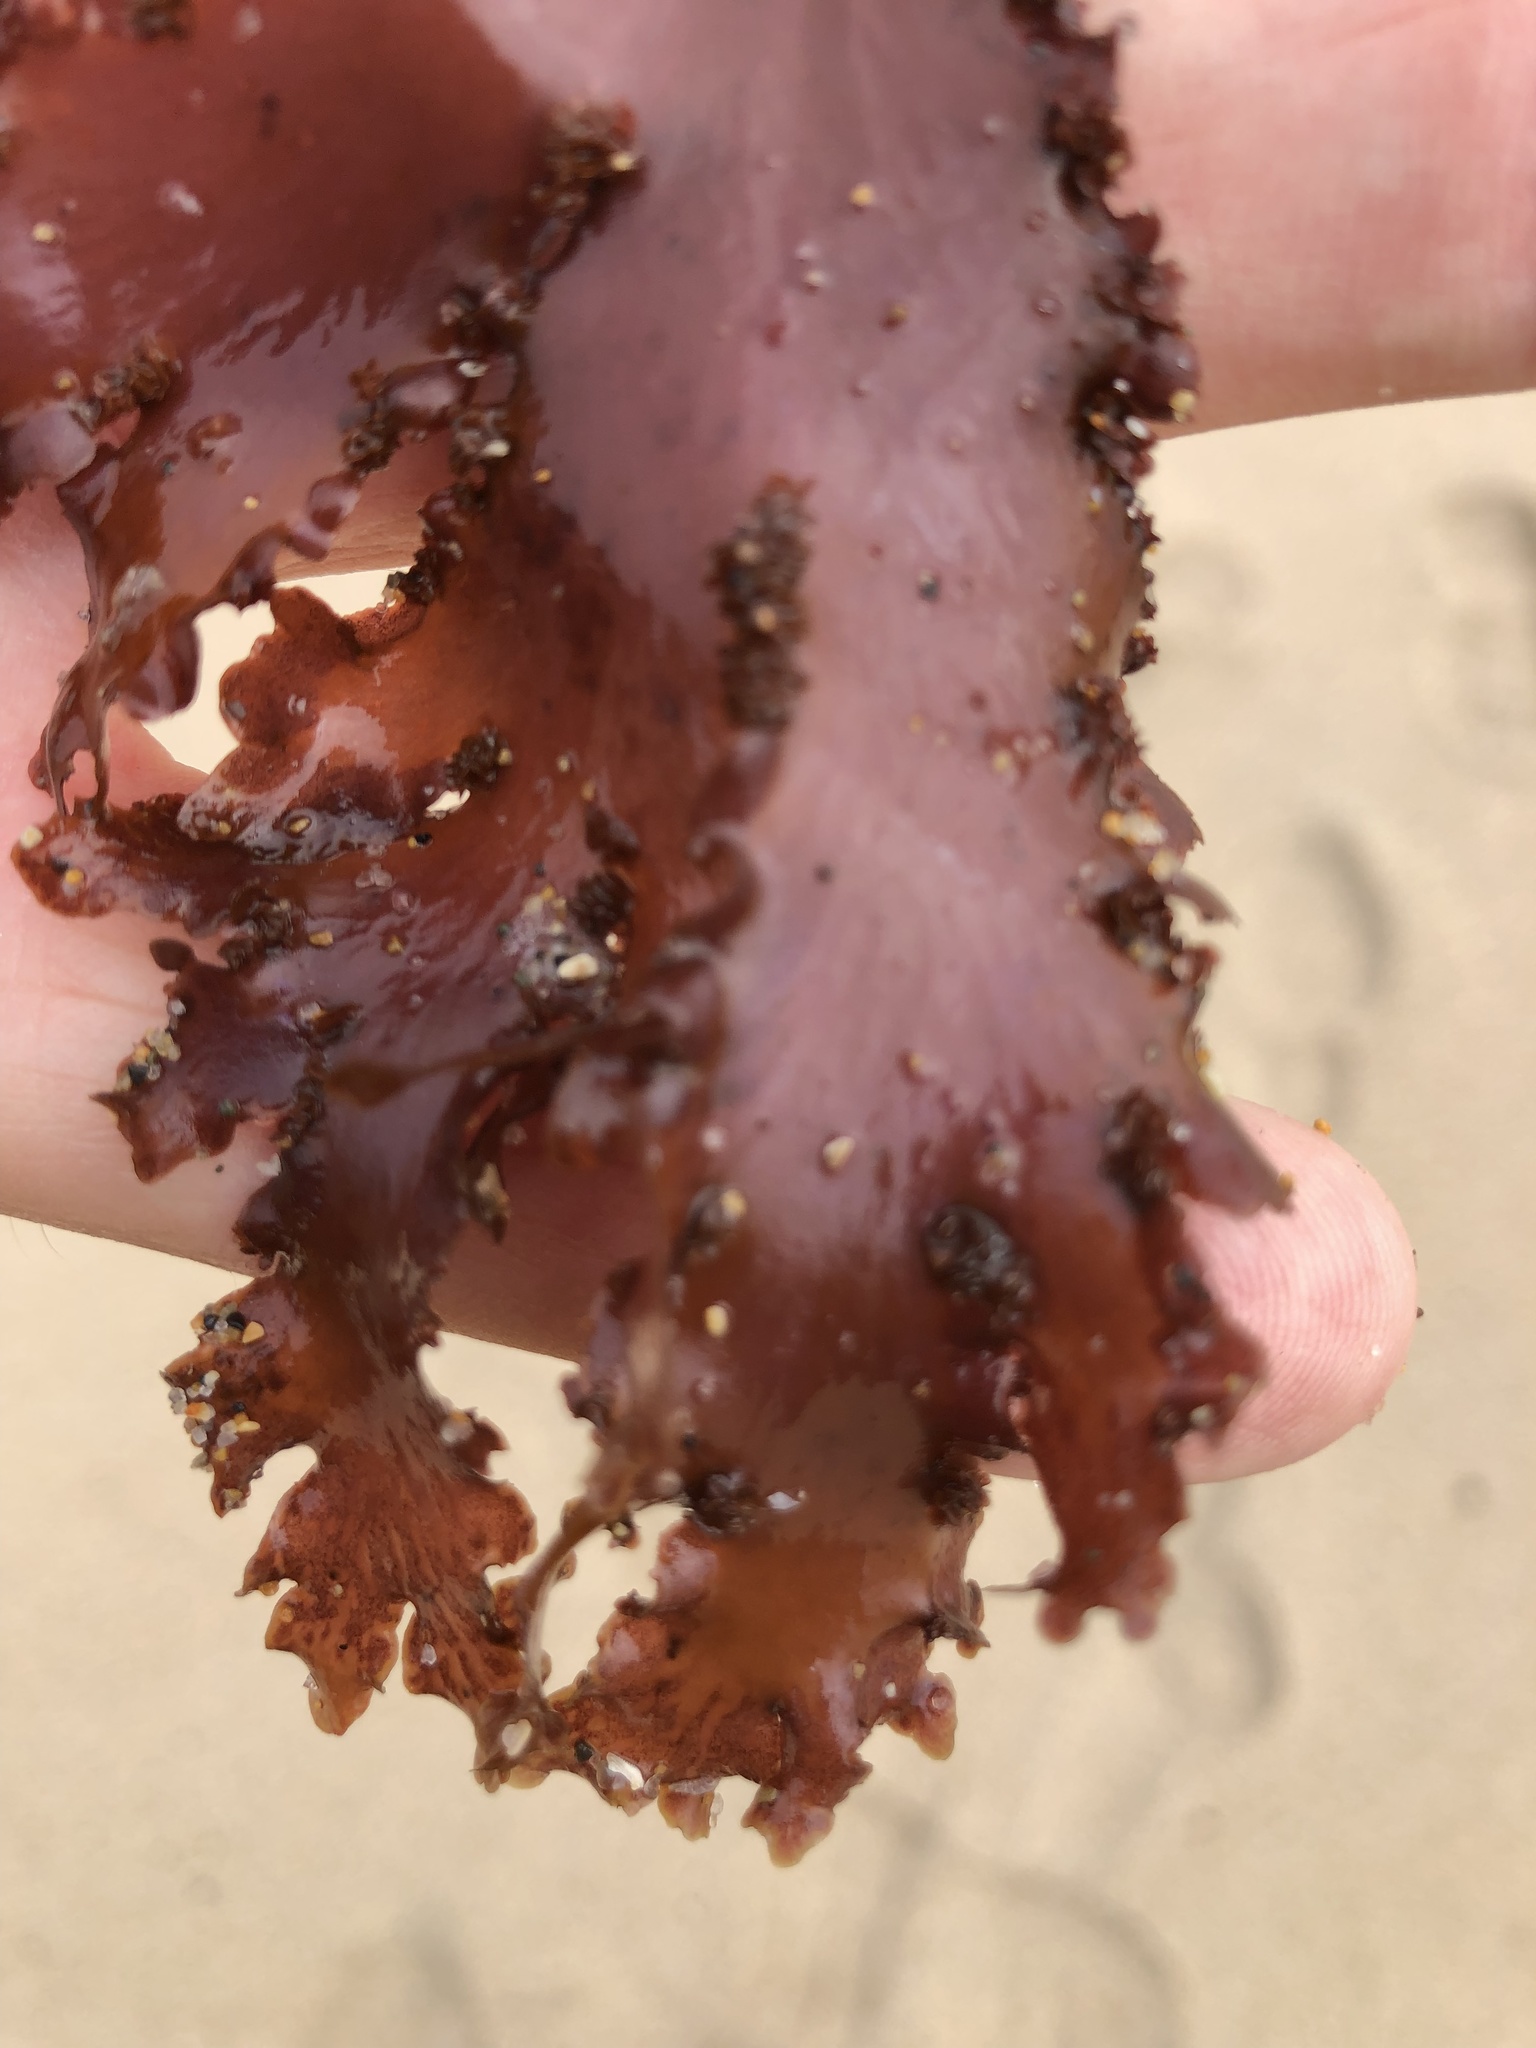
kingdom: Plantae
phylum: Rhodophyta
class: Florideophyceae
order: Ceramiales
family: Delesseriaceae
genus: Cryptopleura
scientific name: Cryptopleura ruprechtiana
